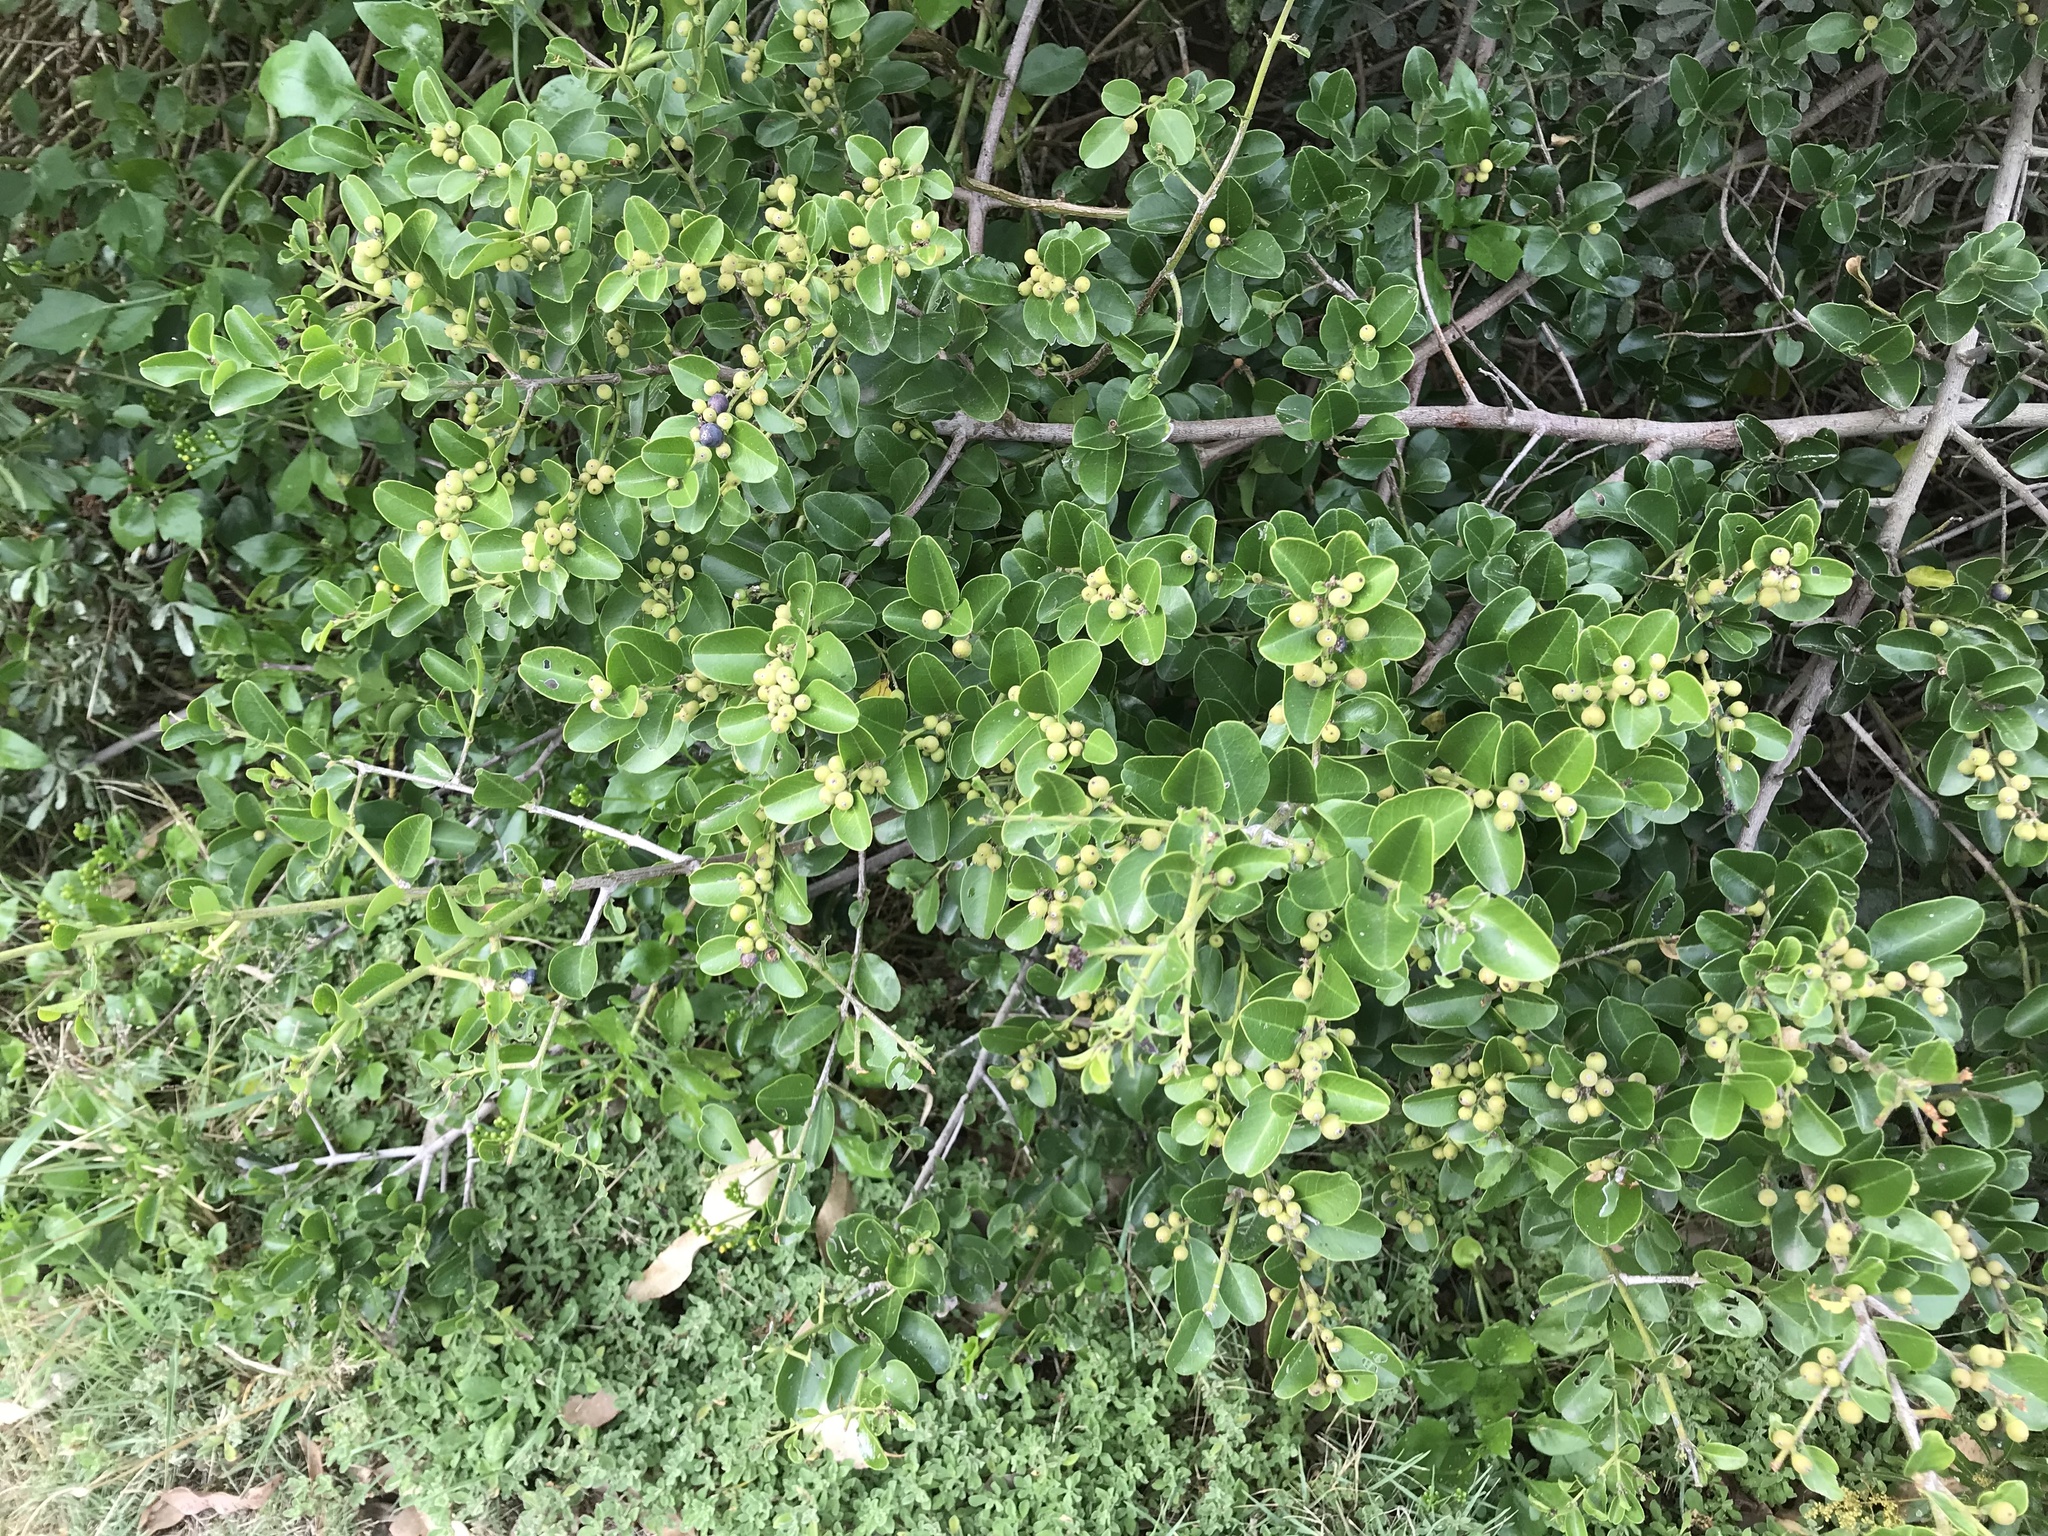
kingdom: Plantae
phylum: Tracheophyta
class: Magnoliopsida
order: Rosales
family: Rhamnaceae
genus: Scutia
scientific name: Scutia myrtina
